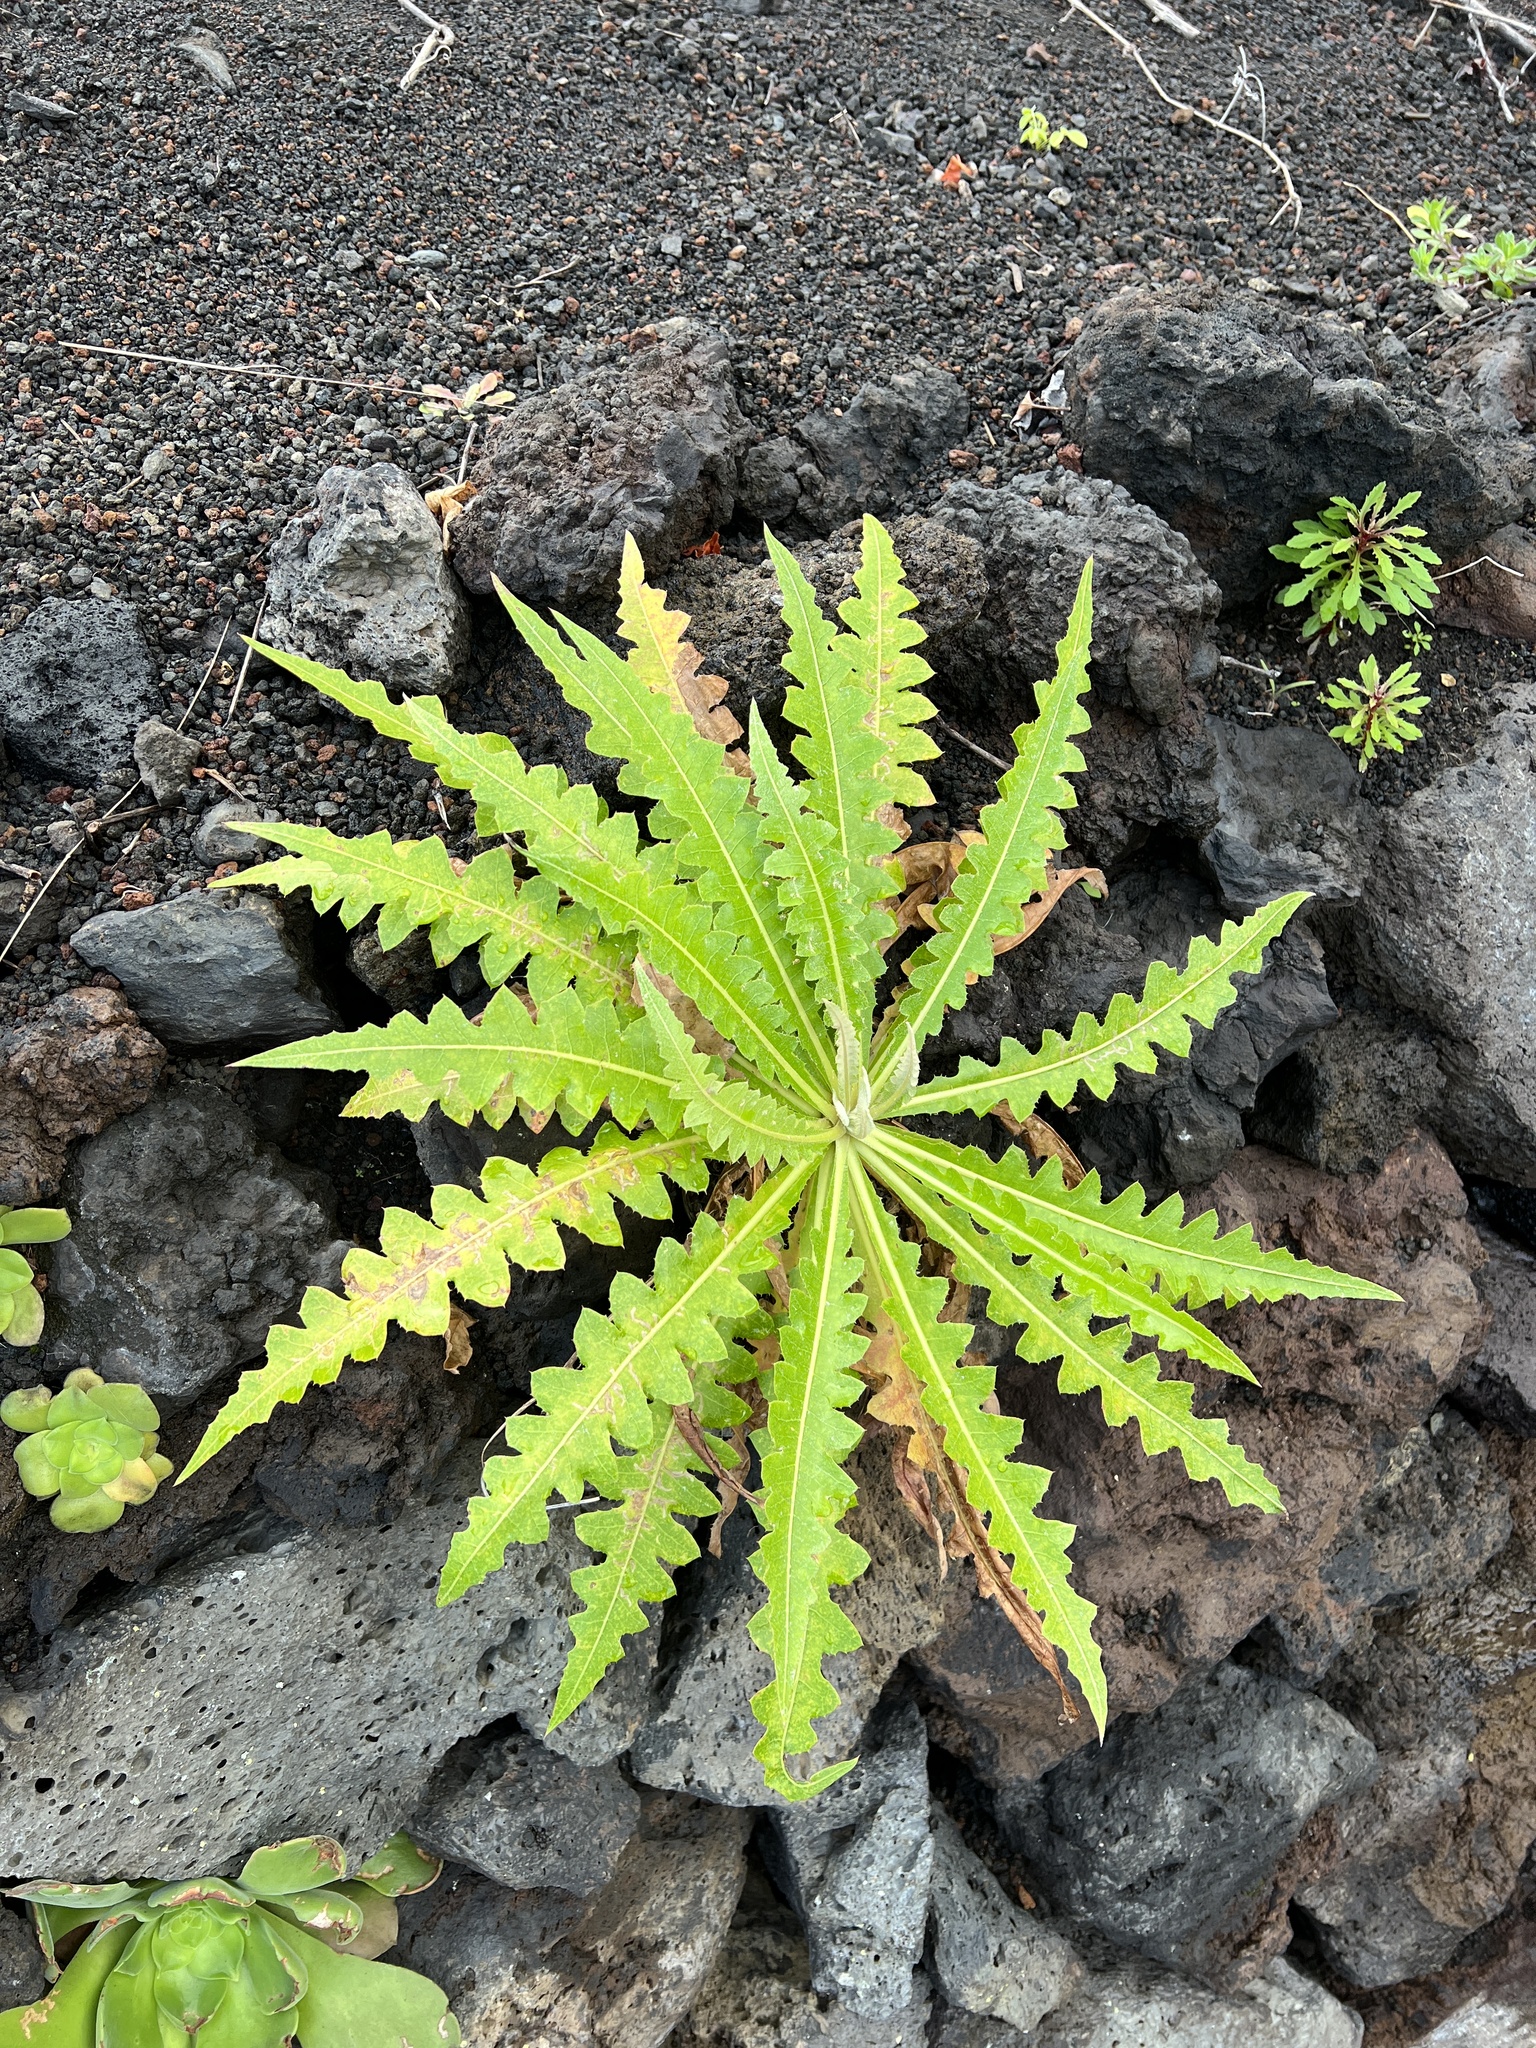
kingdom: Plantae
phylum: Tracheophyta
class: Magnoliopsida
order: Asterales
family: Asteraceae
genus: Sonchus
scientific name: Sonchus hierrensis
